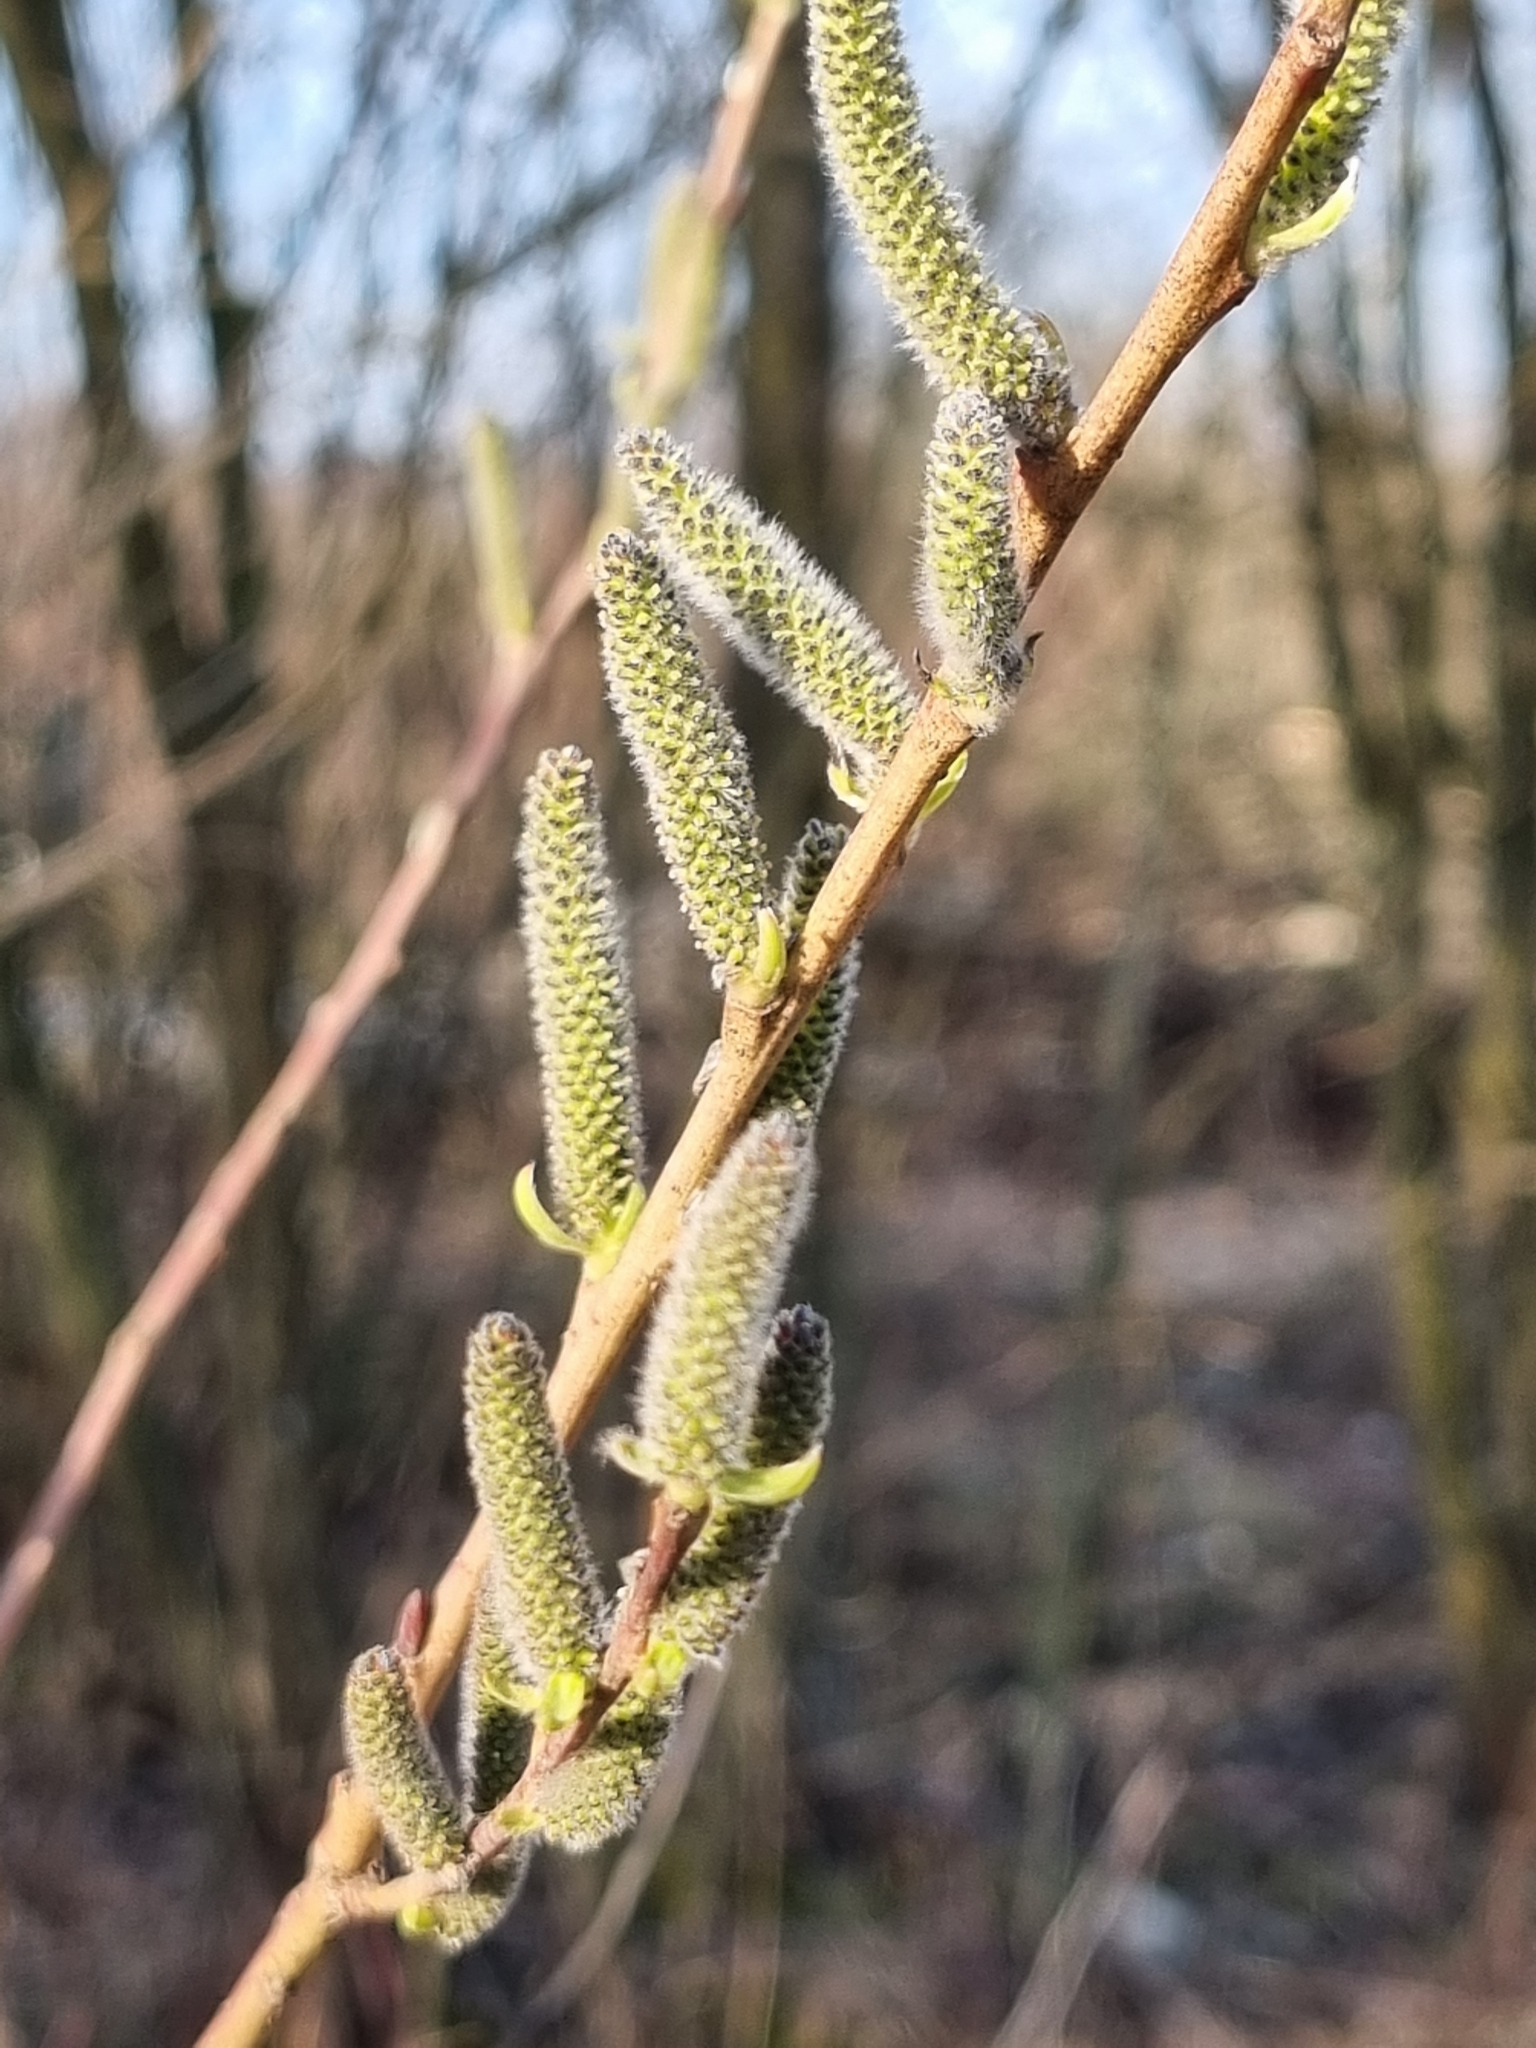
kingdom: Plantae
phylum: Tracheophyta
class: Magnoliopsida
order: Malpighiales
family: Salicaceae
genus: Salix
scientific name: Salix purpurea
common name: Purple willow
